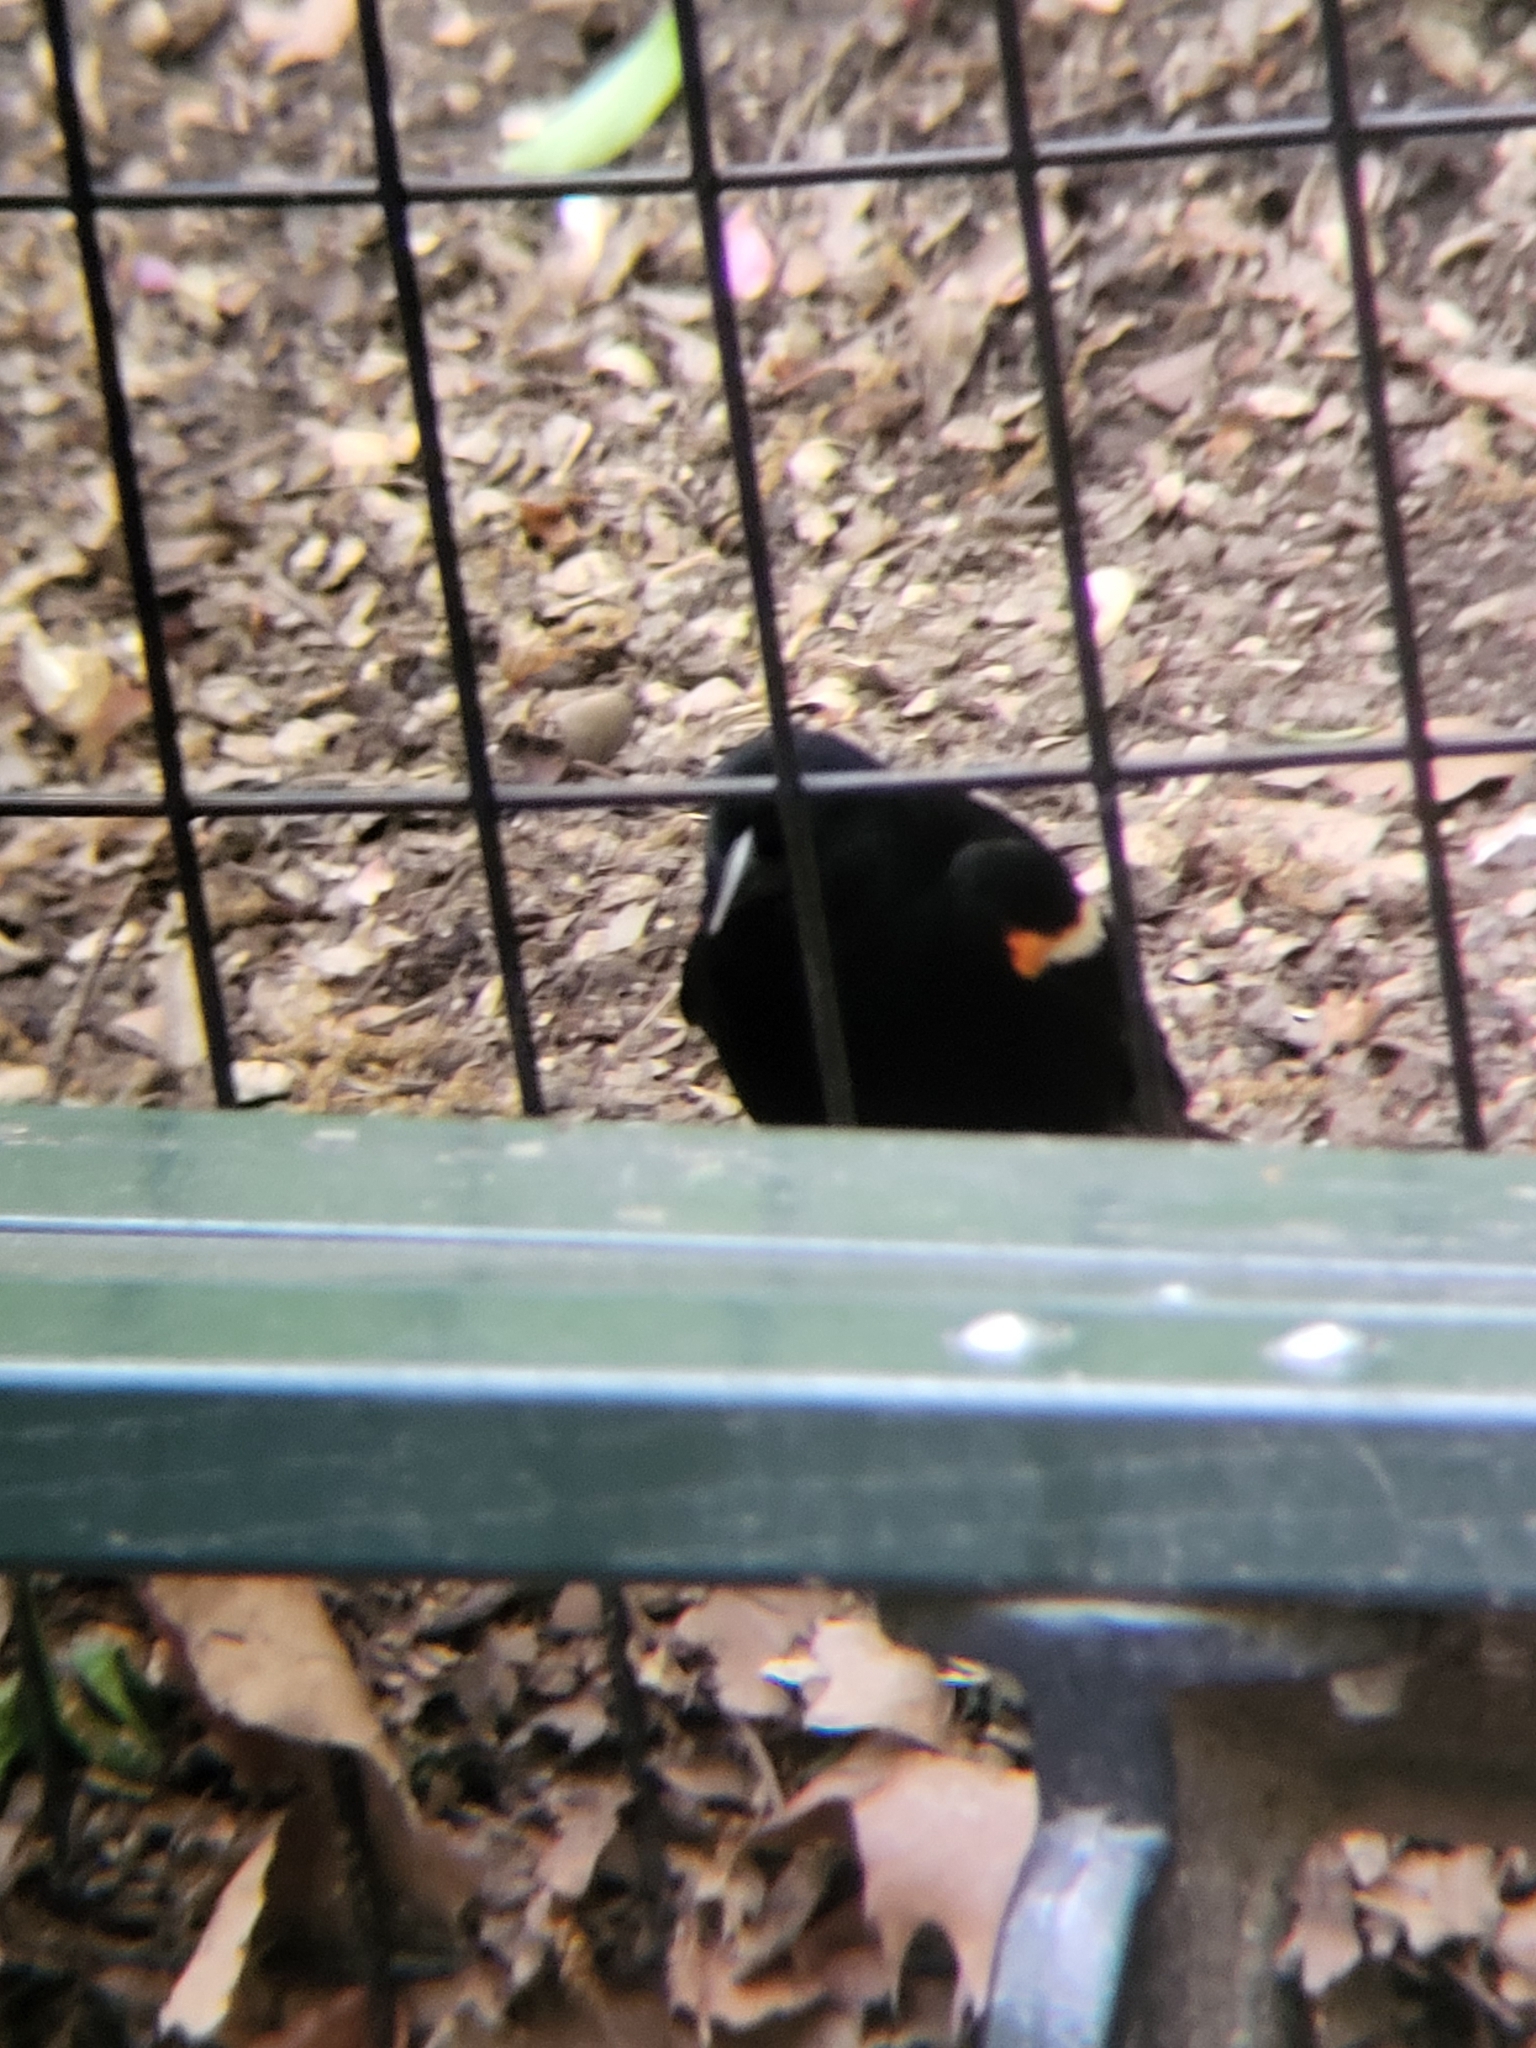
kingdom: Animalia
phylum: Chordata
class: Aves
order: Passeriformes
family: Icteridae
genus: Agelaius
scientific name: Agelaius phoeniceus
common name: Red-winged blackbird
